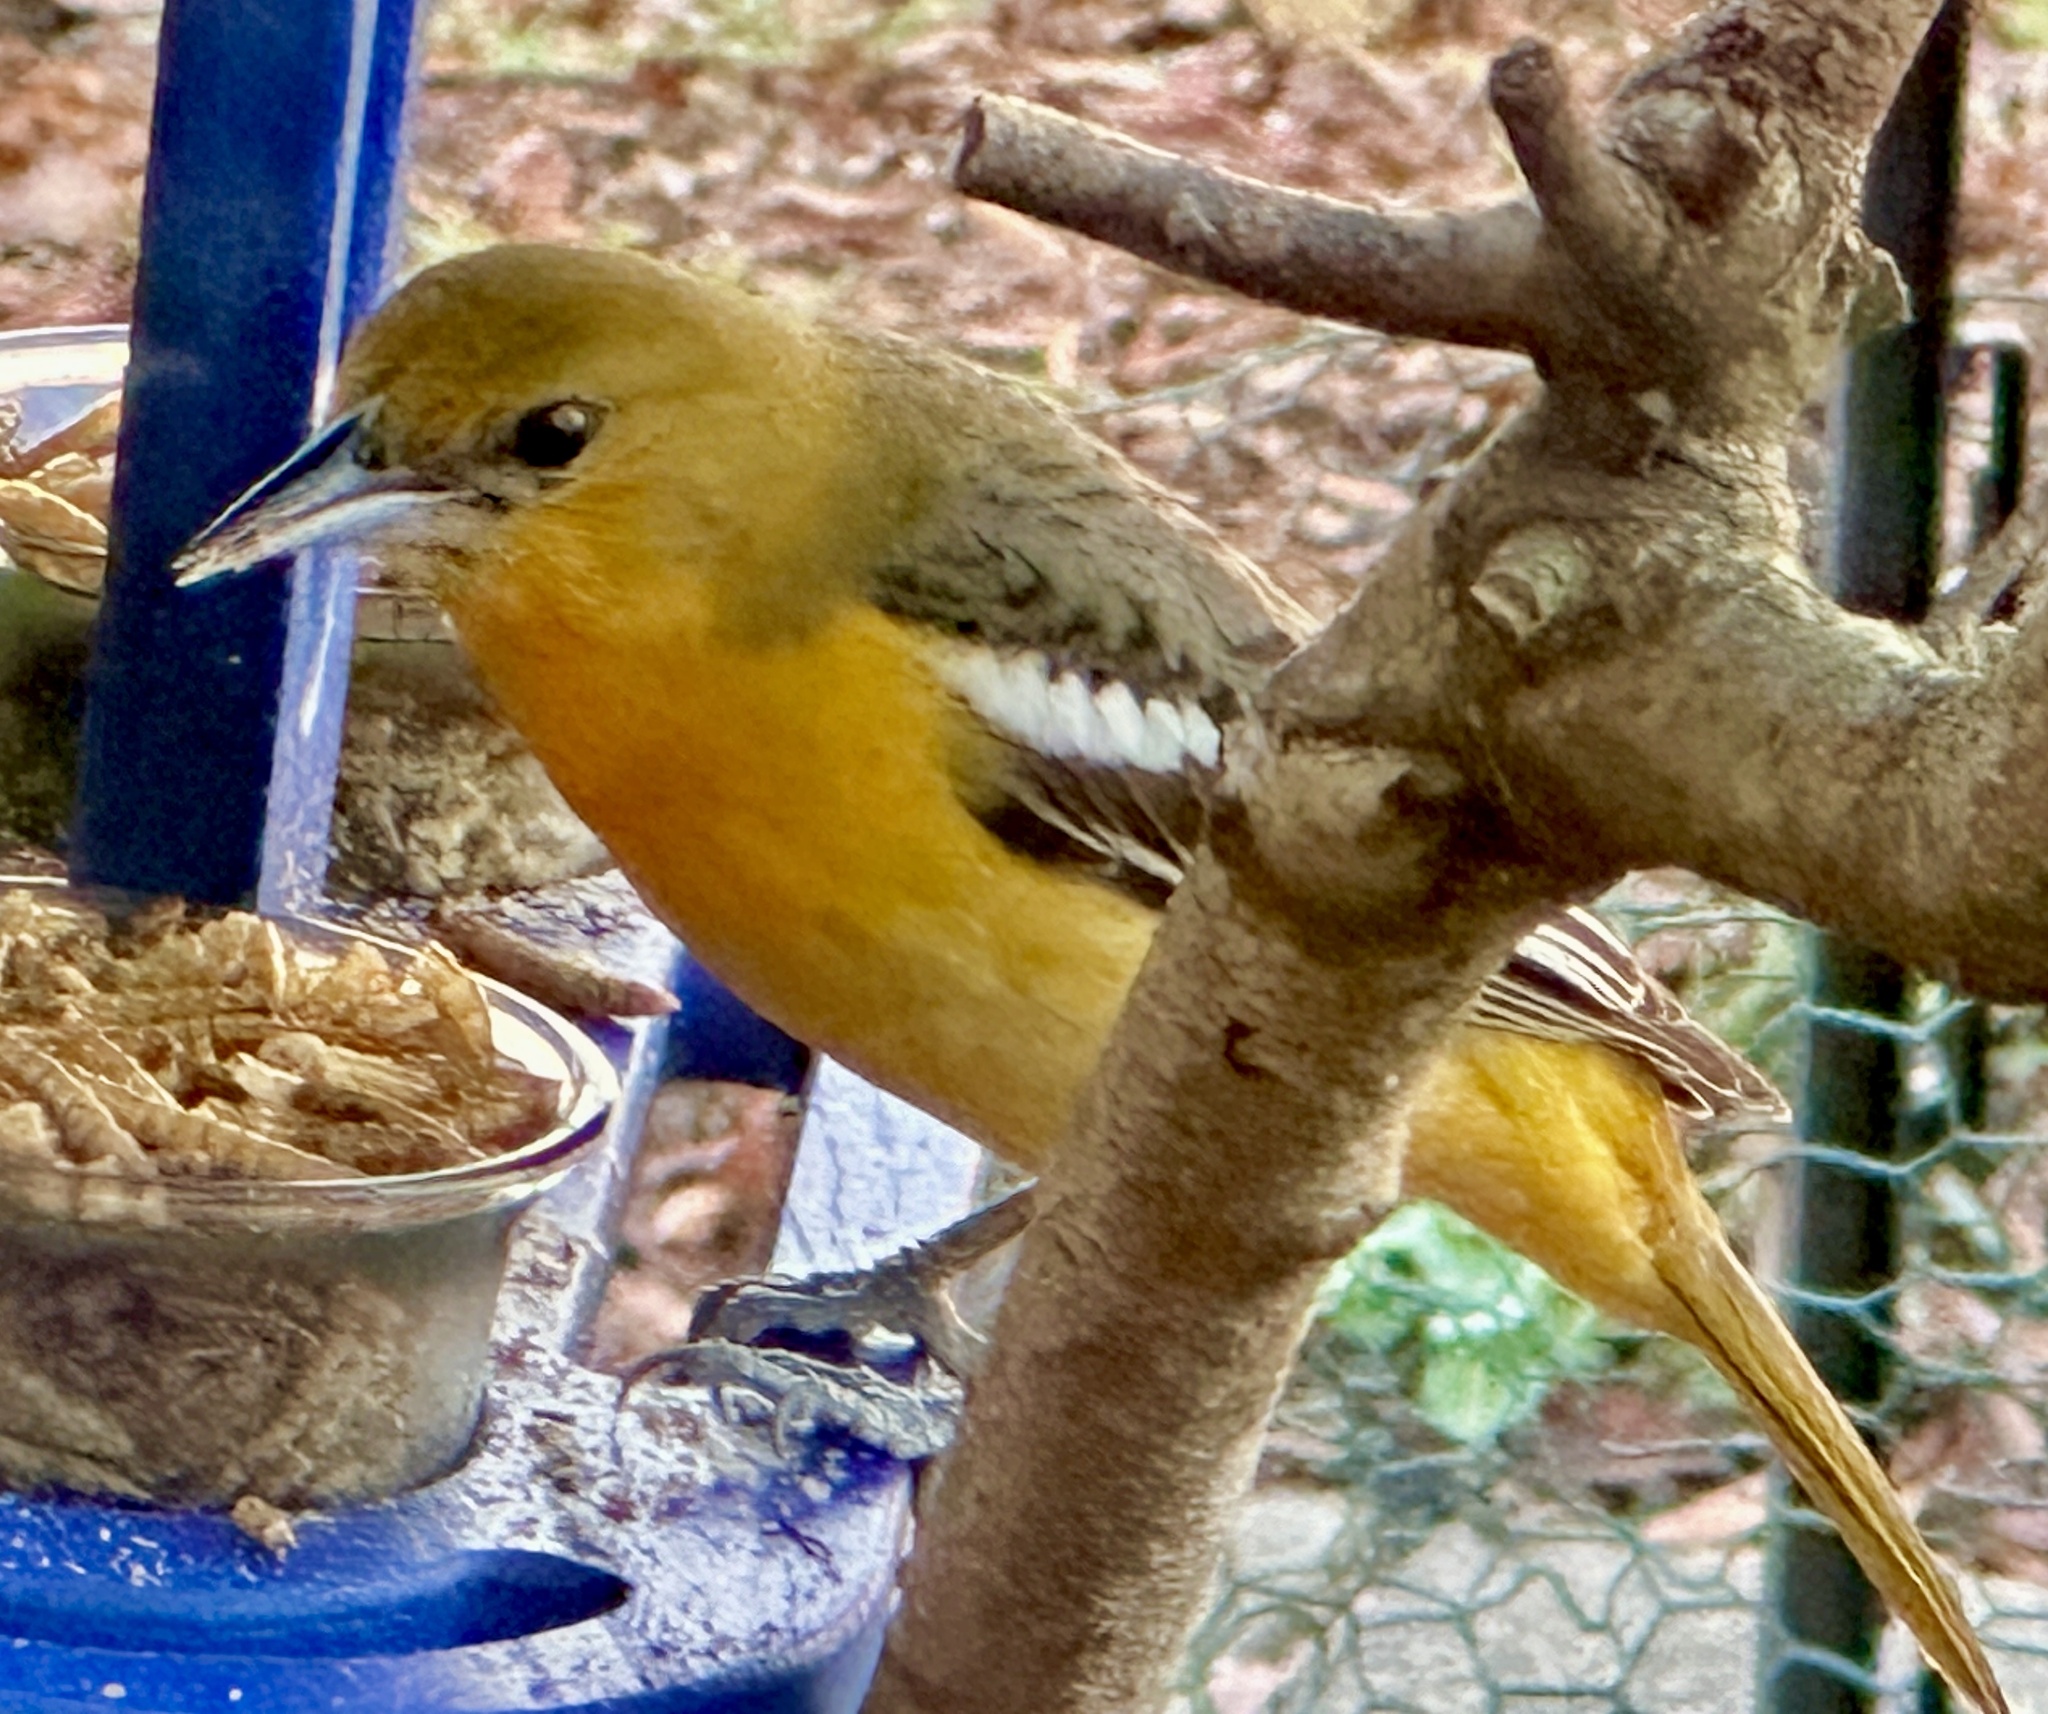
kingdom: Animalia
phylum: Chordata
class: Aves
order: Passeriformes
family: Icteridae
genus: Icterus
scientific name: Icterus galbula
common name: Baltimore oriole
